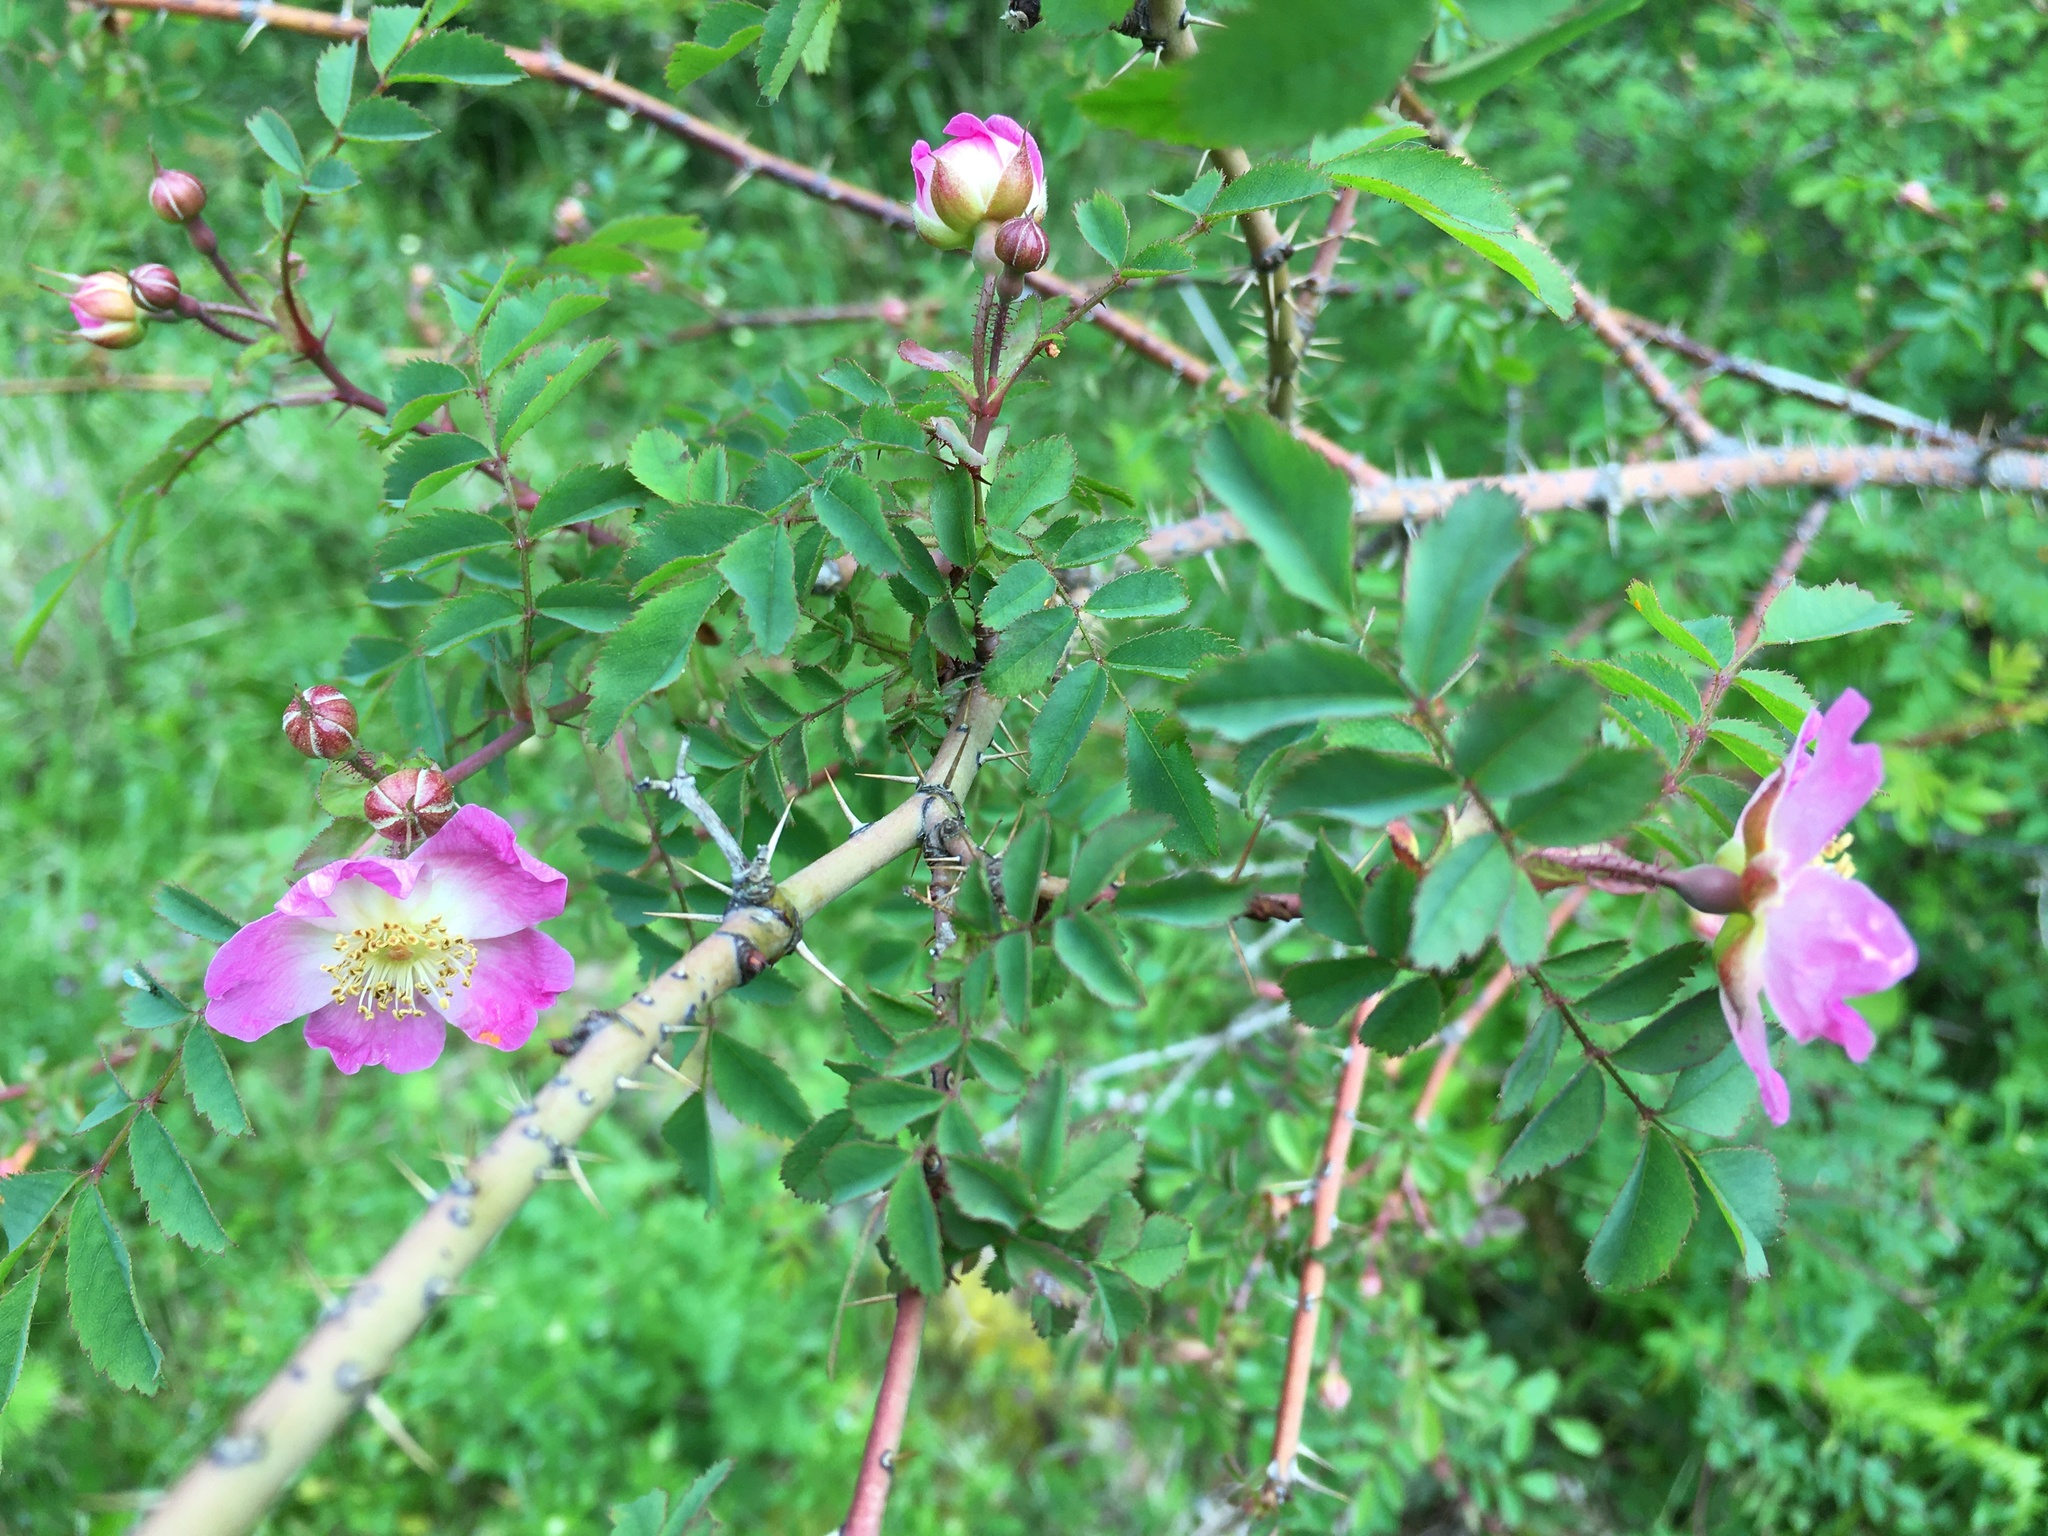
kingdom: Plantae
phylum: Tracheophyta
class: Magnoliopsida
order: Rosales
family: Rosaceae
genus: Rosa
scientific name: Rosa gymnocarpa
